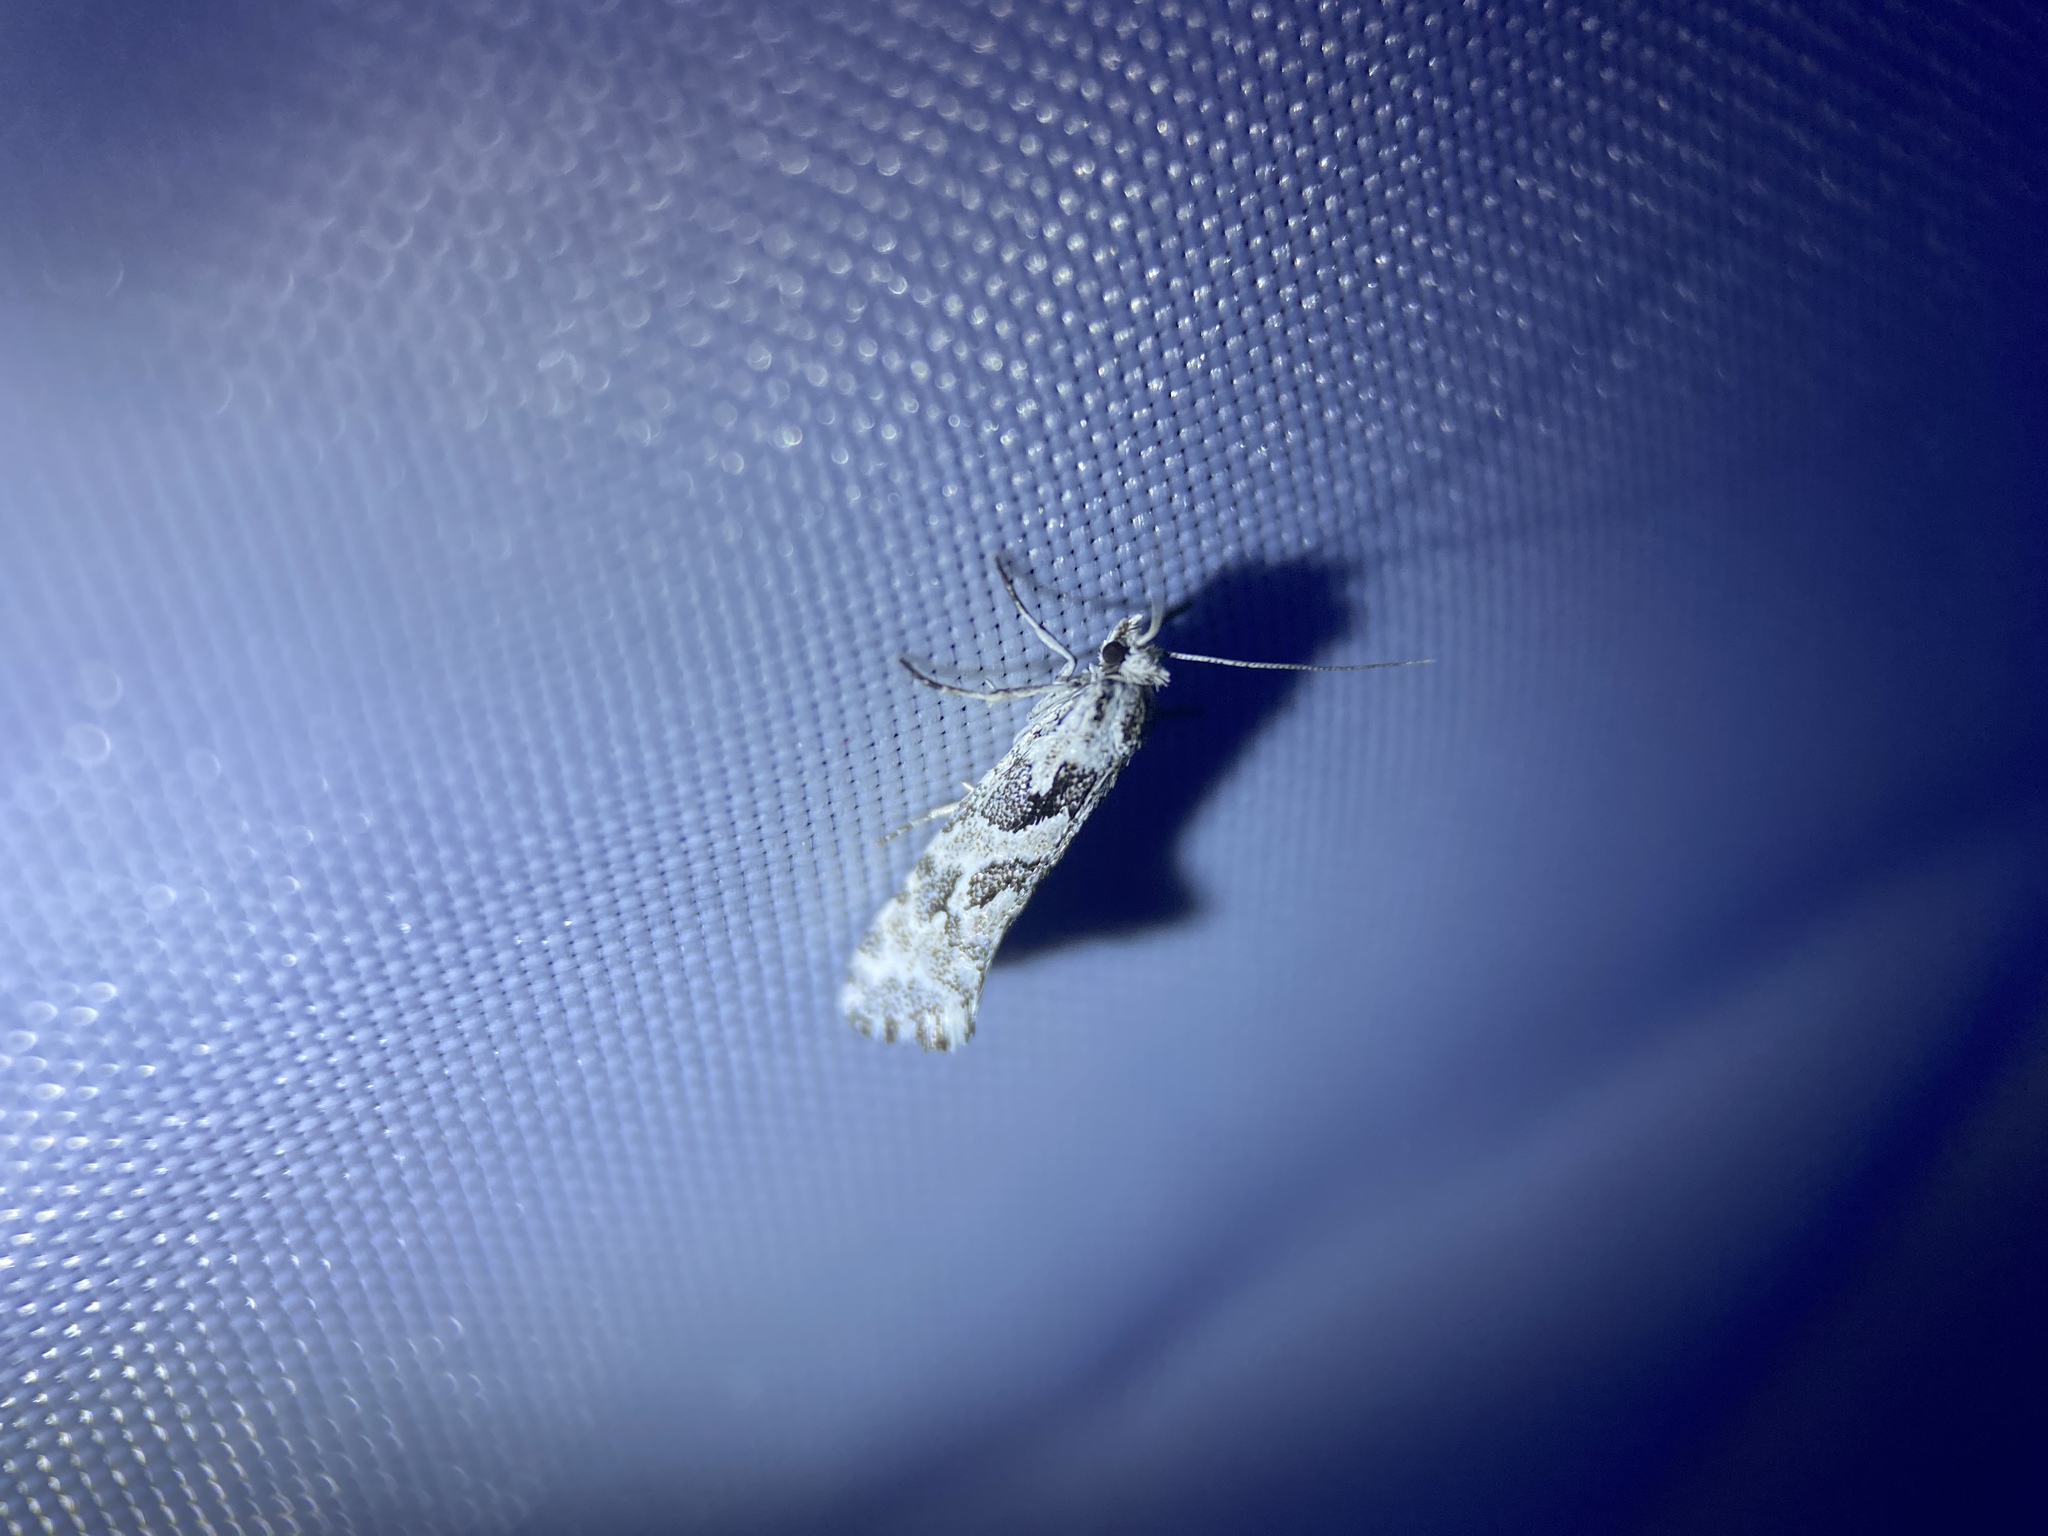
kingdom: Animalia
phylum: Arthropoda
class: Insecta
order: Lepidoptera
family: Plutellidae
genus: Araeolepia
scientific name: Araeolepia subfasciella
